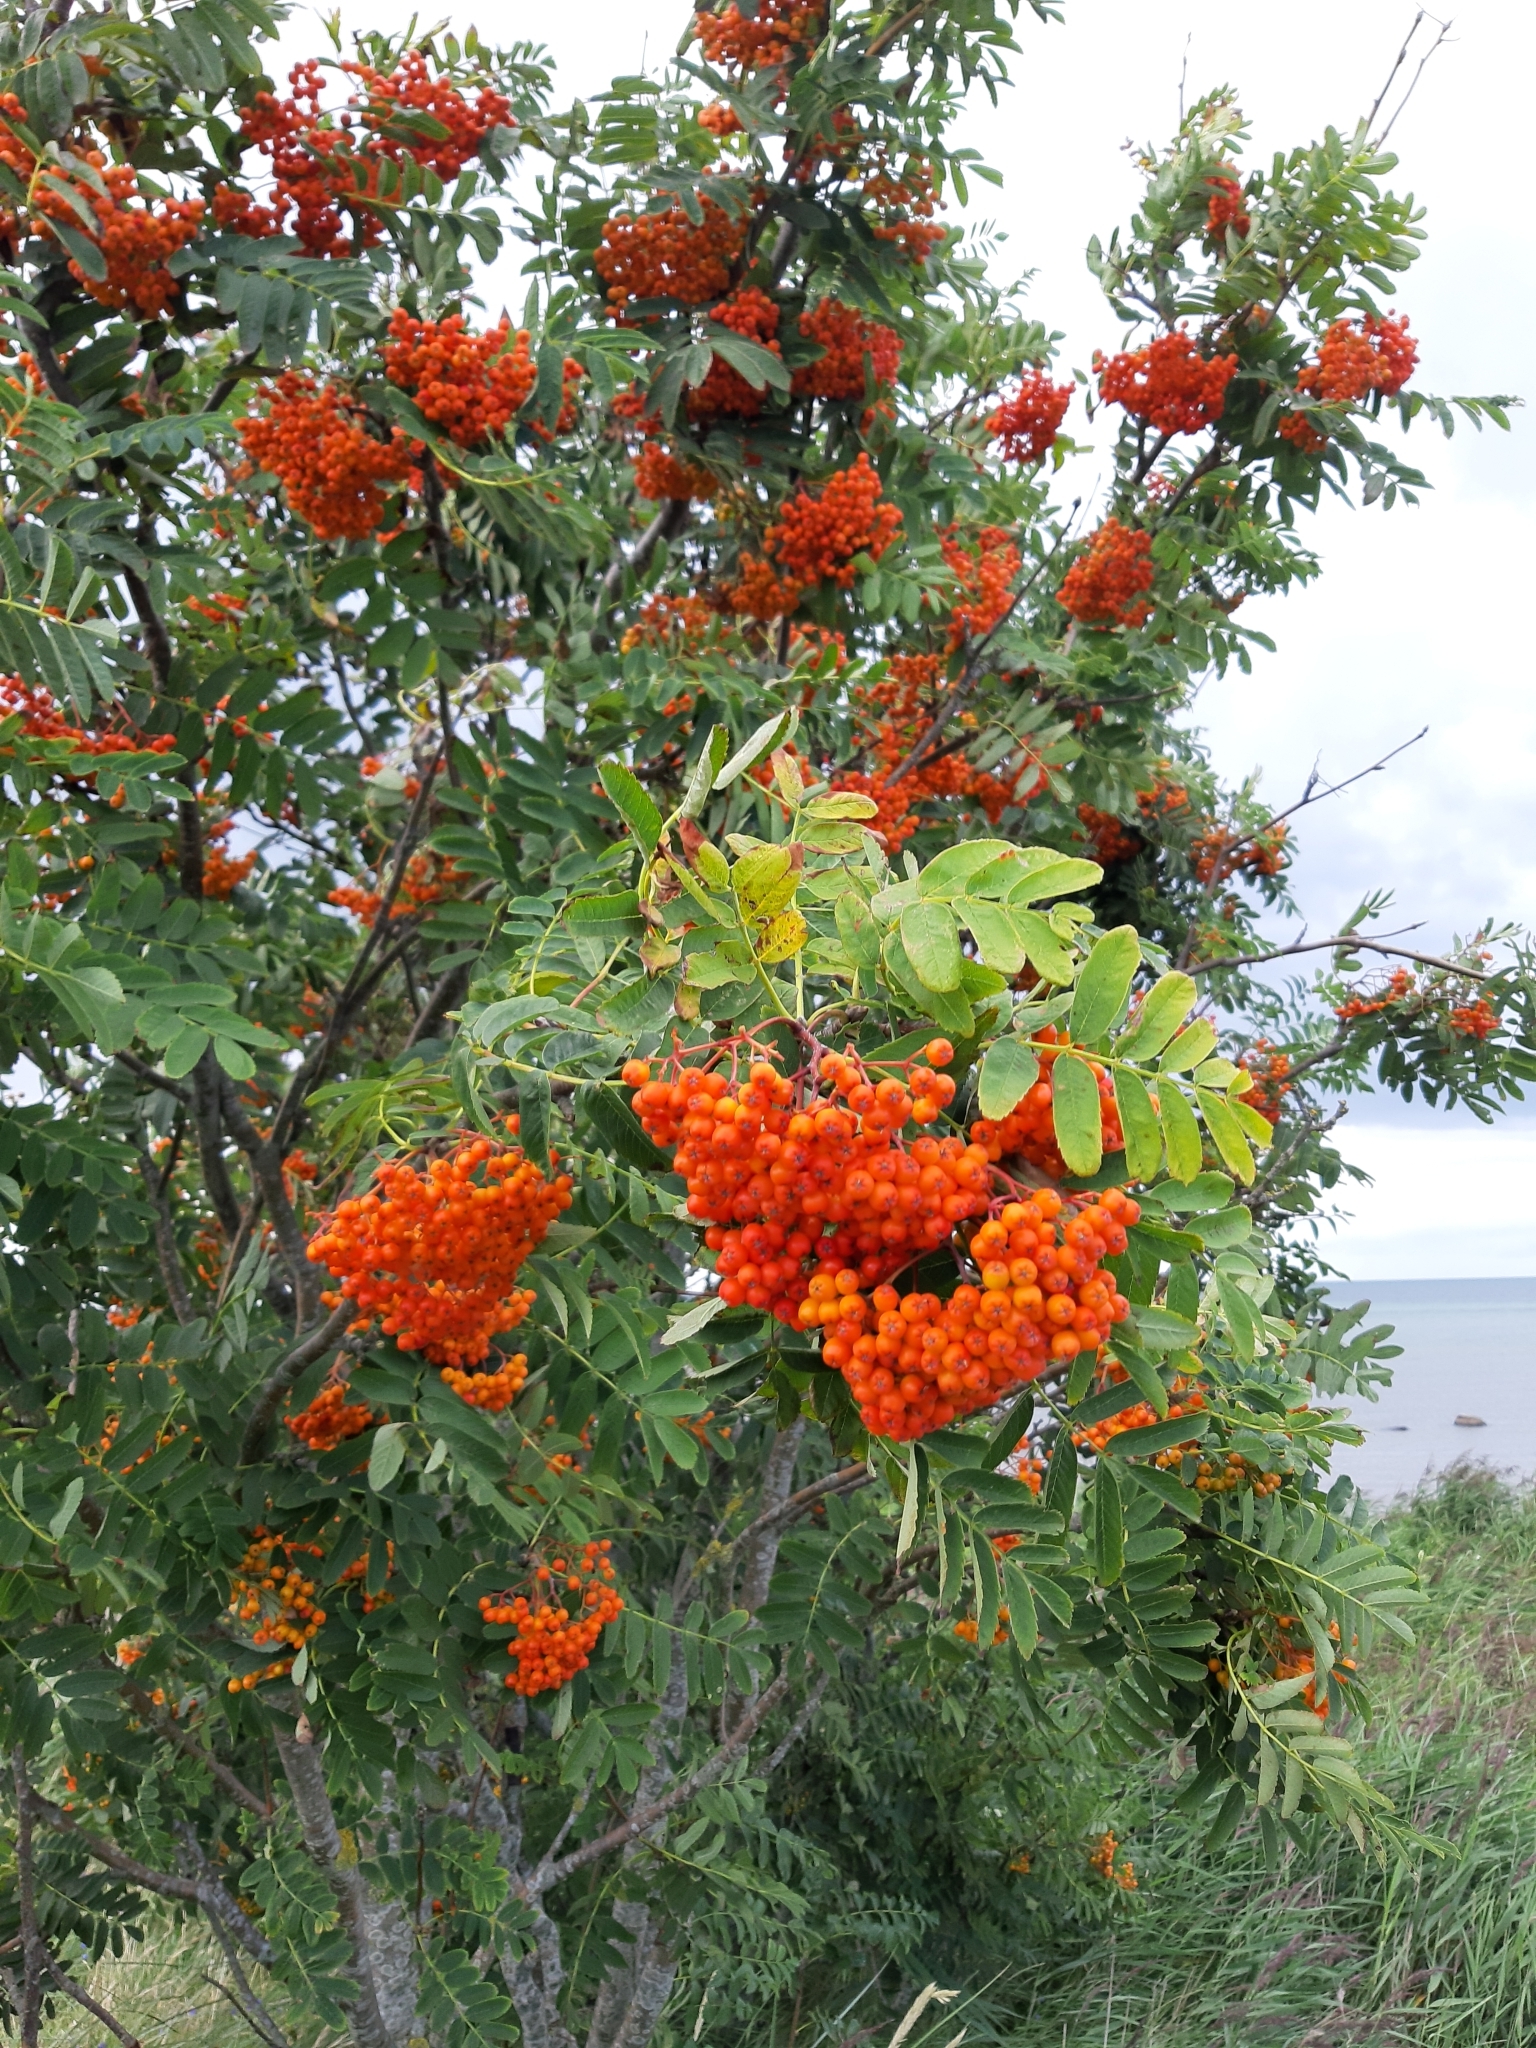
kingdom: Plantae
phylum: Tracheophyta
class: Magnoliopsida
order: Rosales
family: Rosaceae
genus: Sorbus
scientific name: Sorbus aucuparia
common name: Rowan
